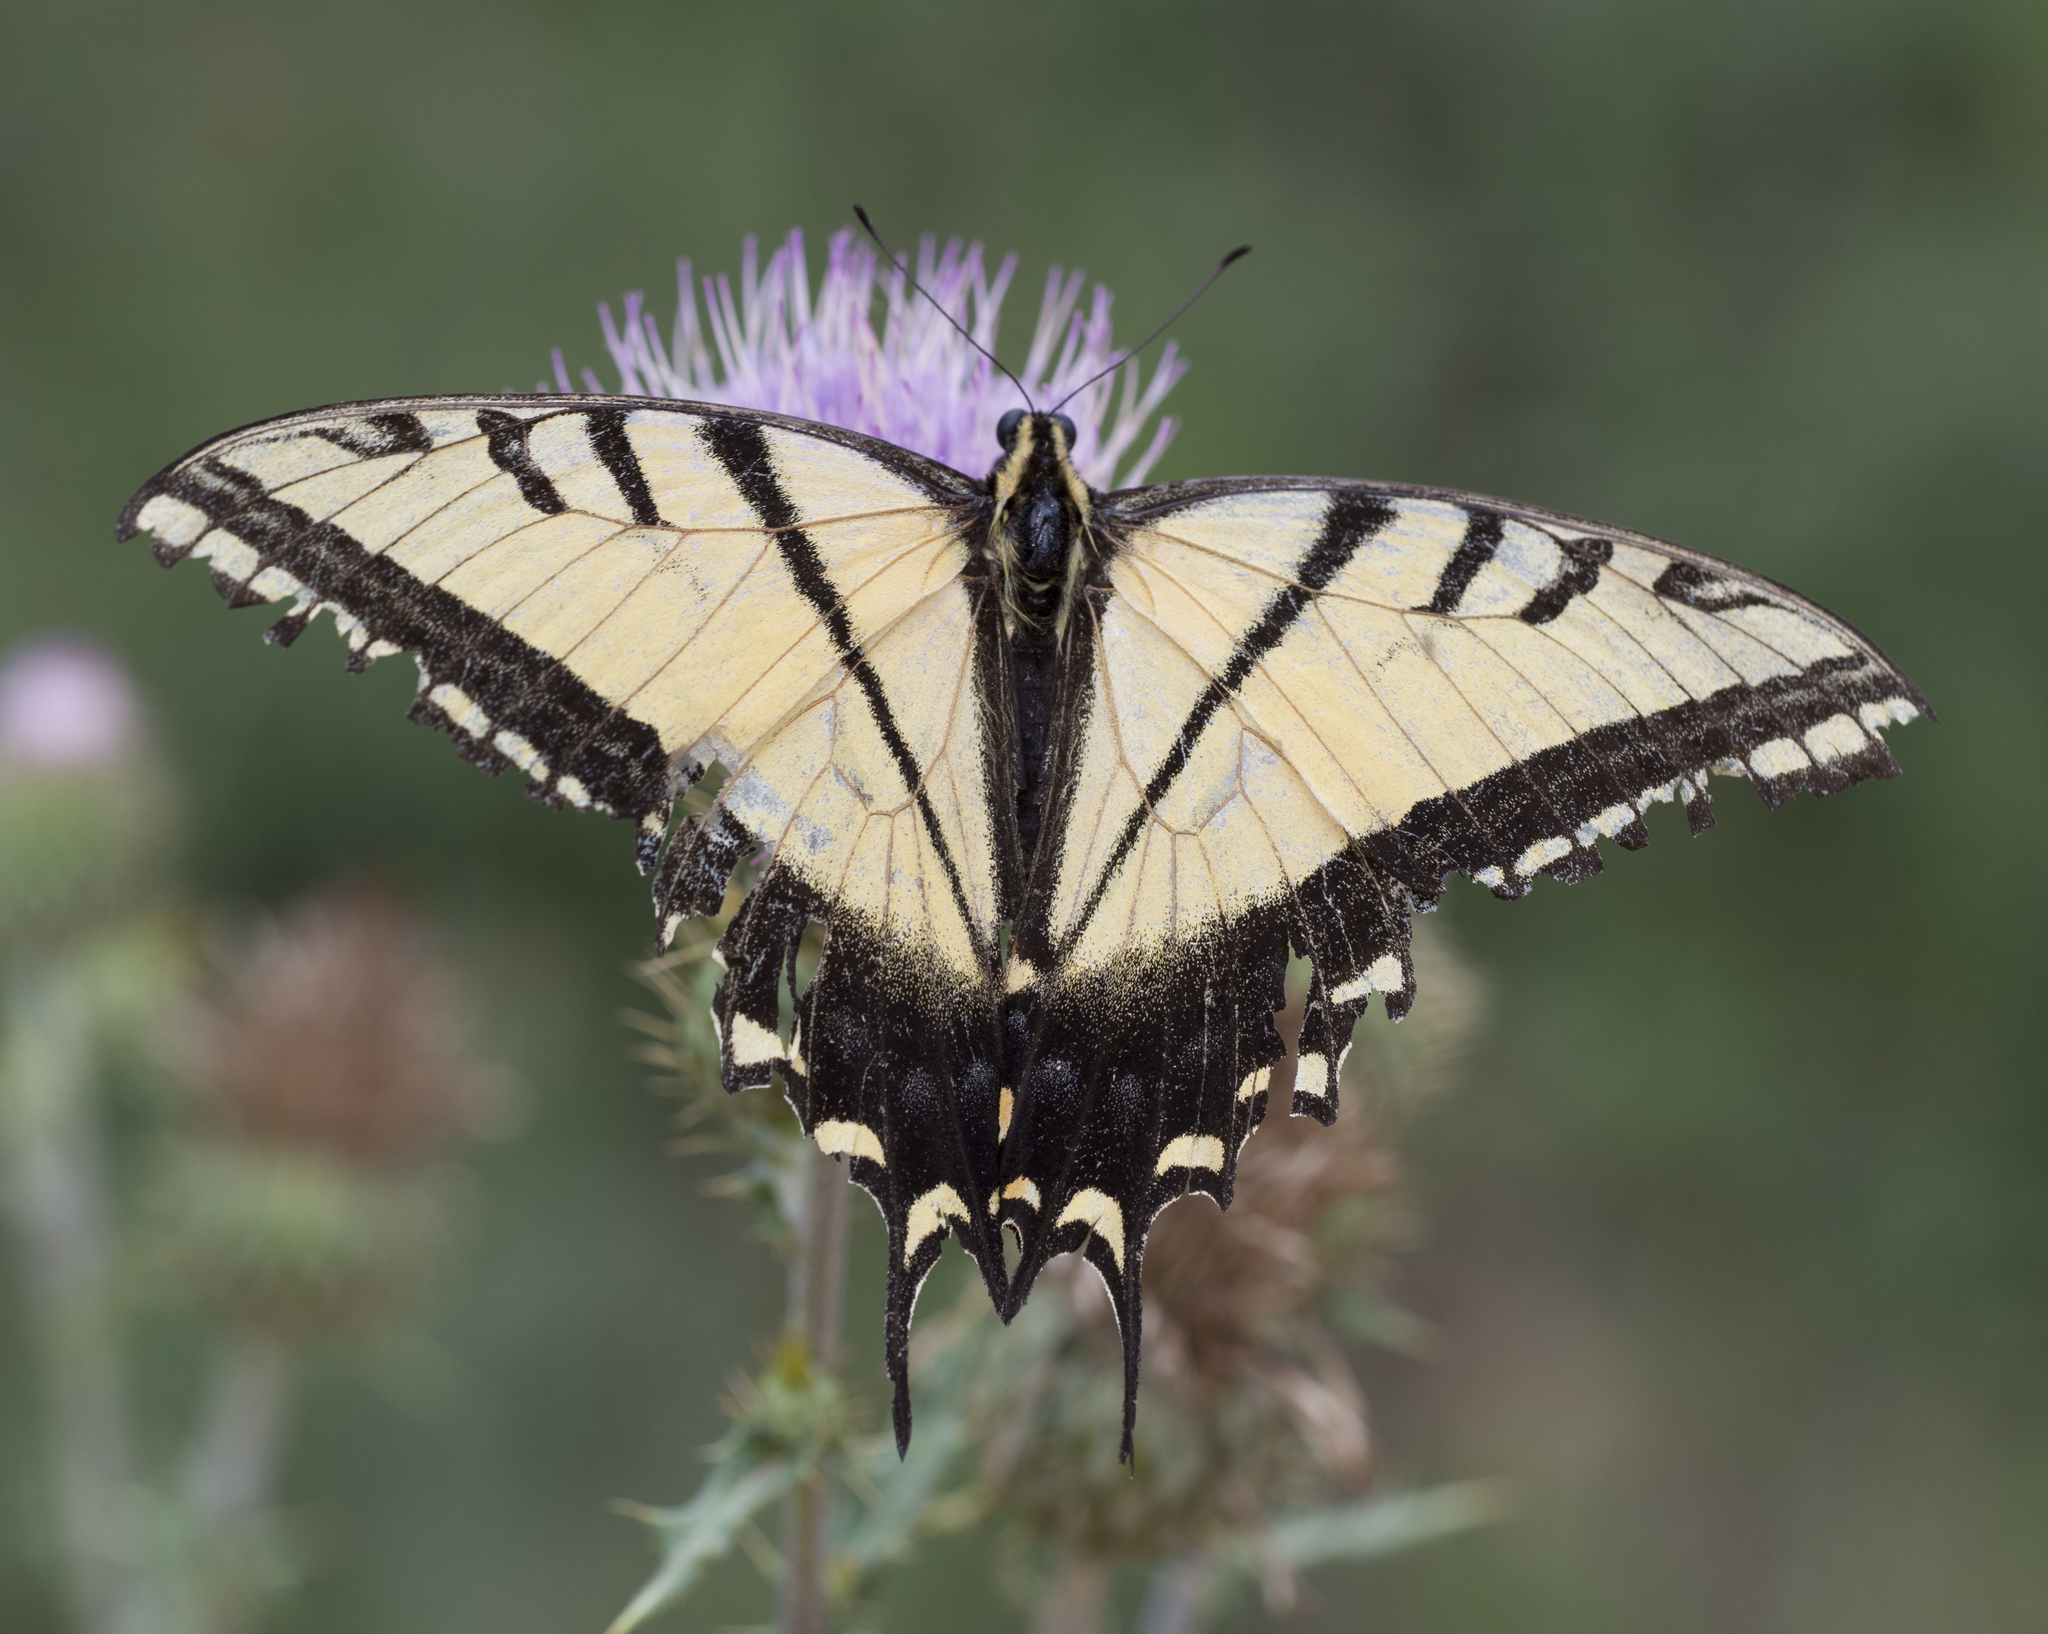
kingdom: Animalia
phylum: Arthropoda
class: Insecta
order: Lepidoptera
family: Papilionidae
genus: Papilio
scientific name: Papilio multicaudata
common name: Two-tailed tiger swallowtail
